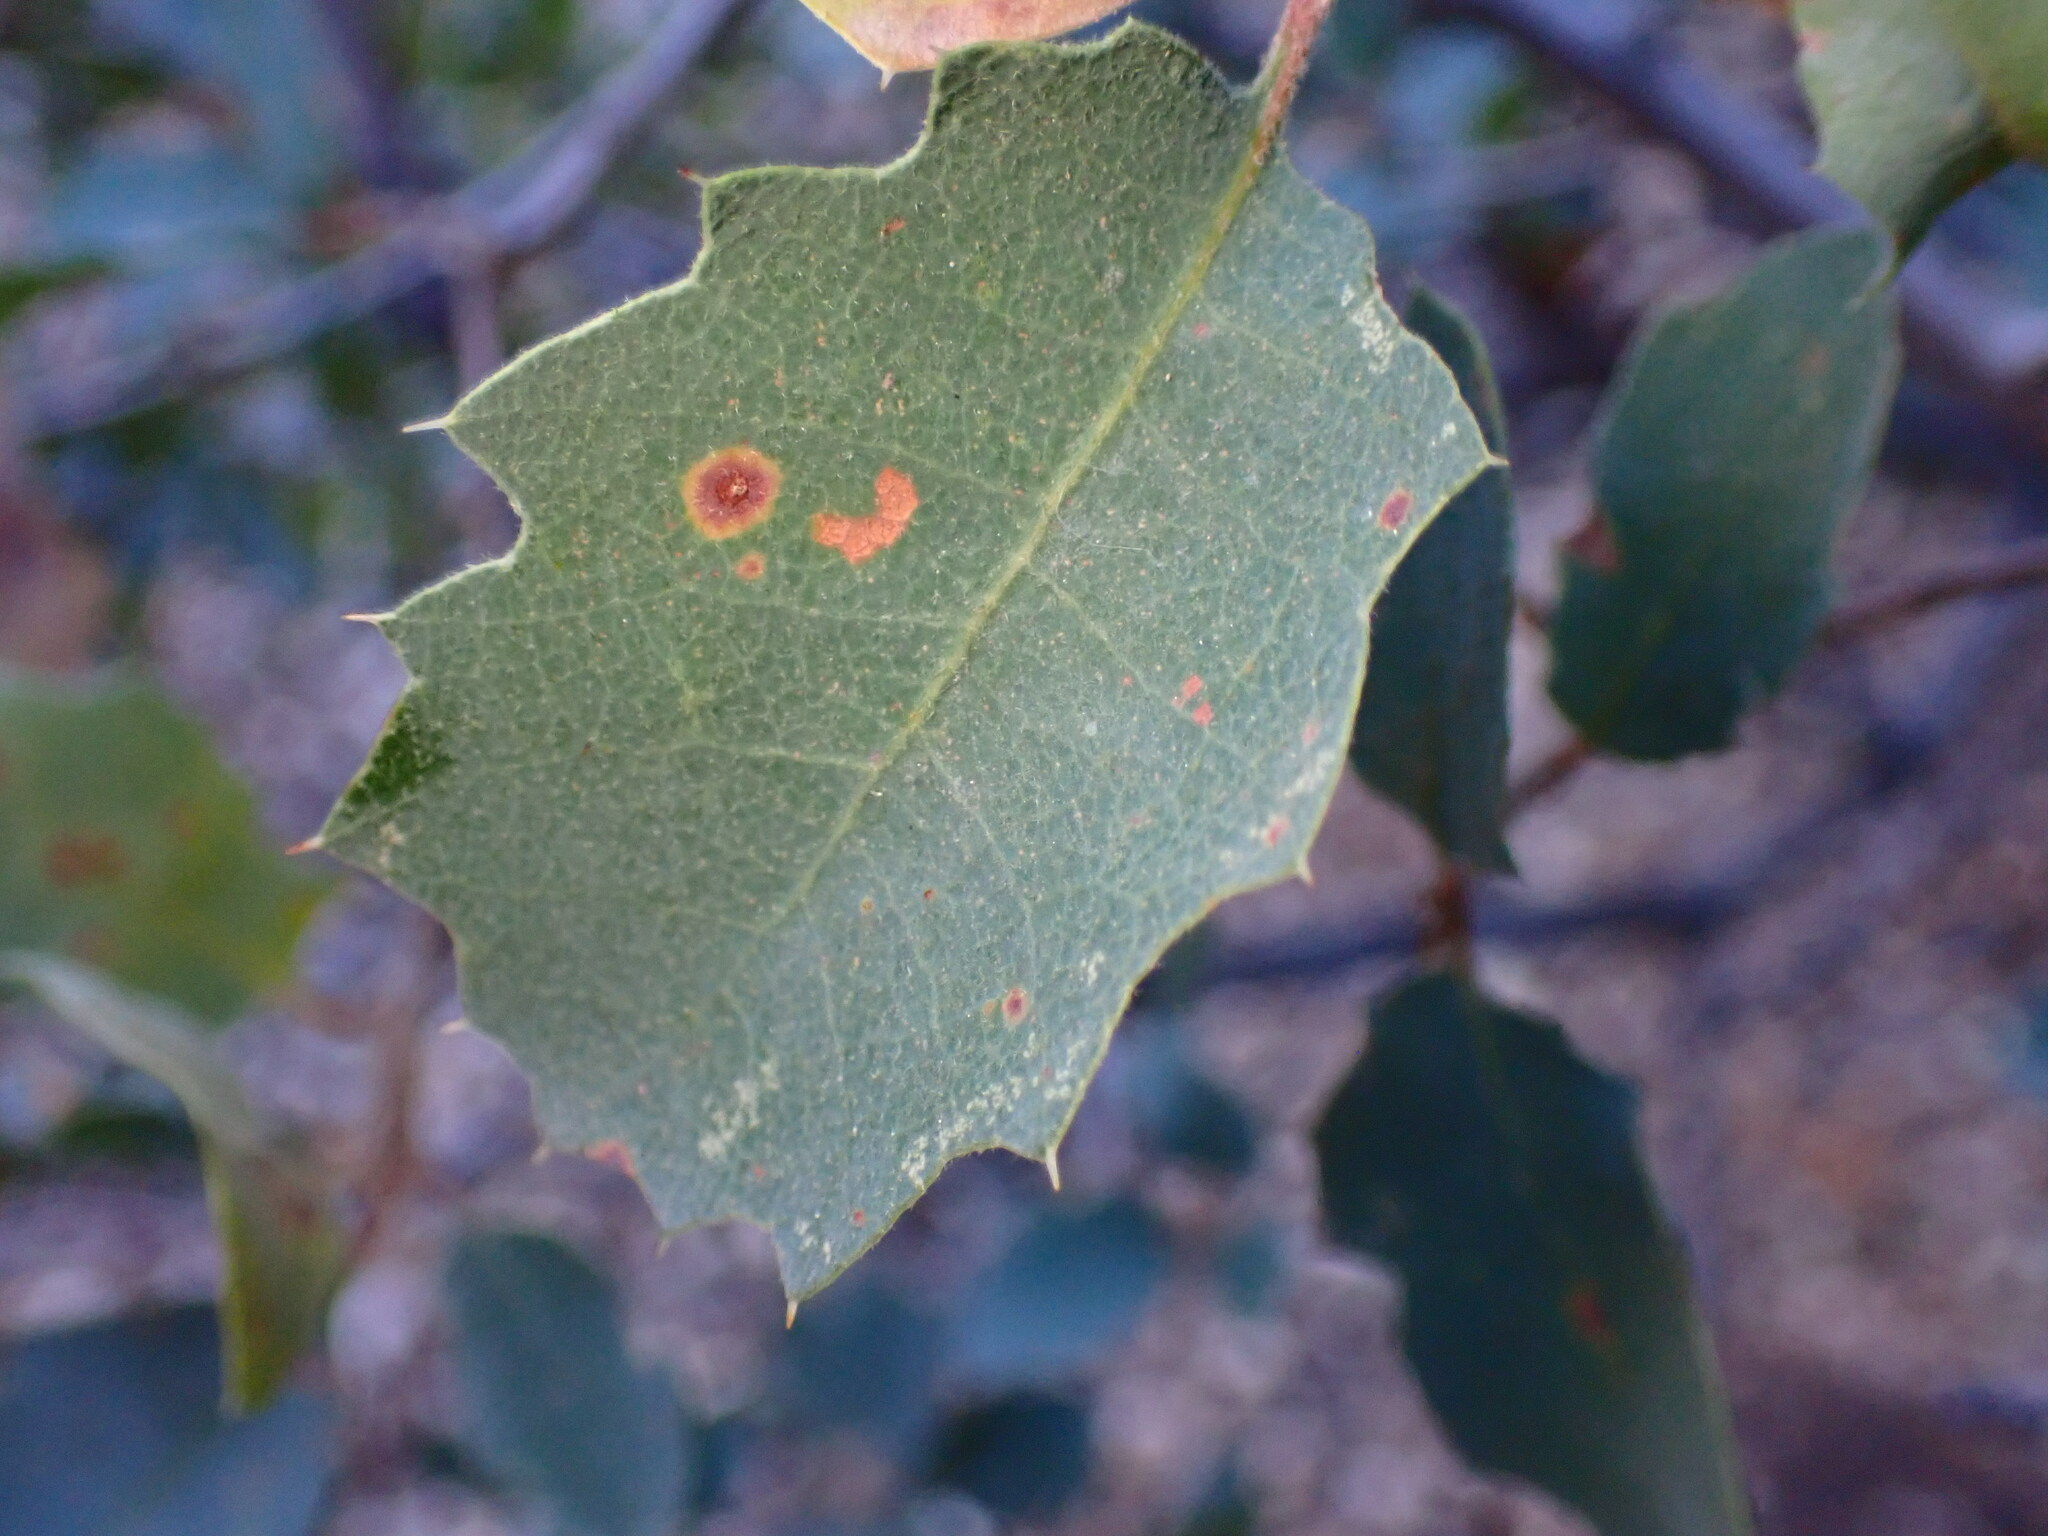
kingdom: Plantae
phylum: Tracheophyta
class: Magnoliopsida
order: Fagales
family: Fagaceae
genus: Quercus
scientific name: Quercus john-tuckeri
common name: Tucker's oak
